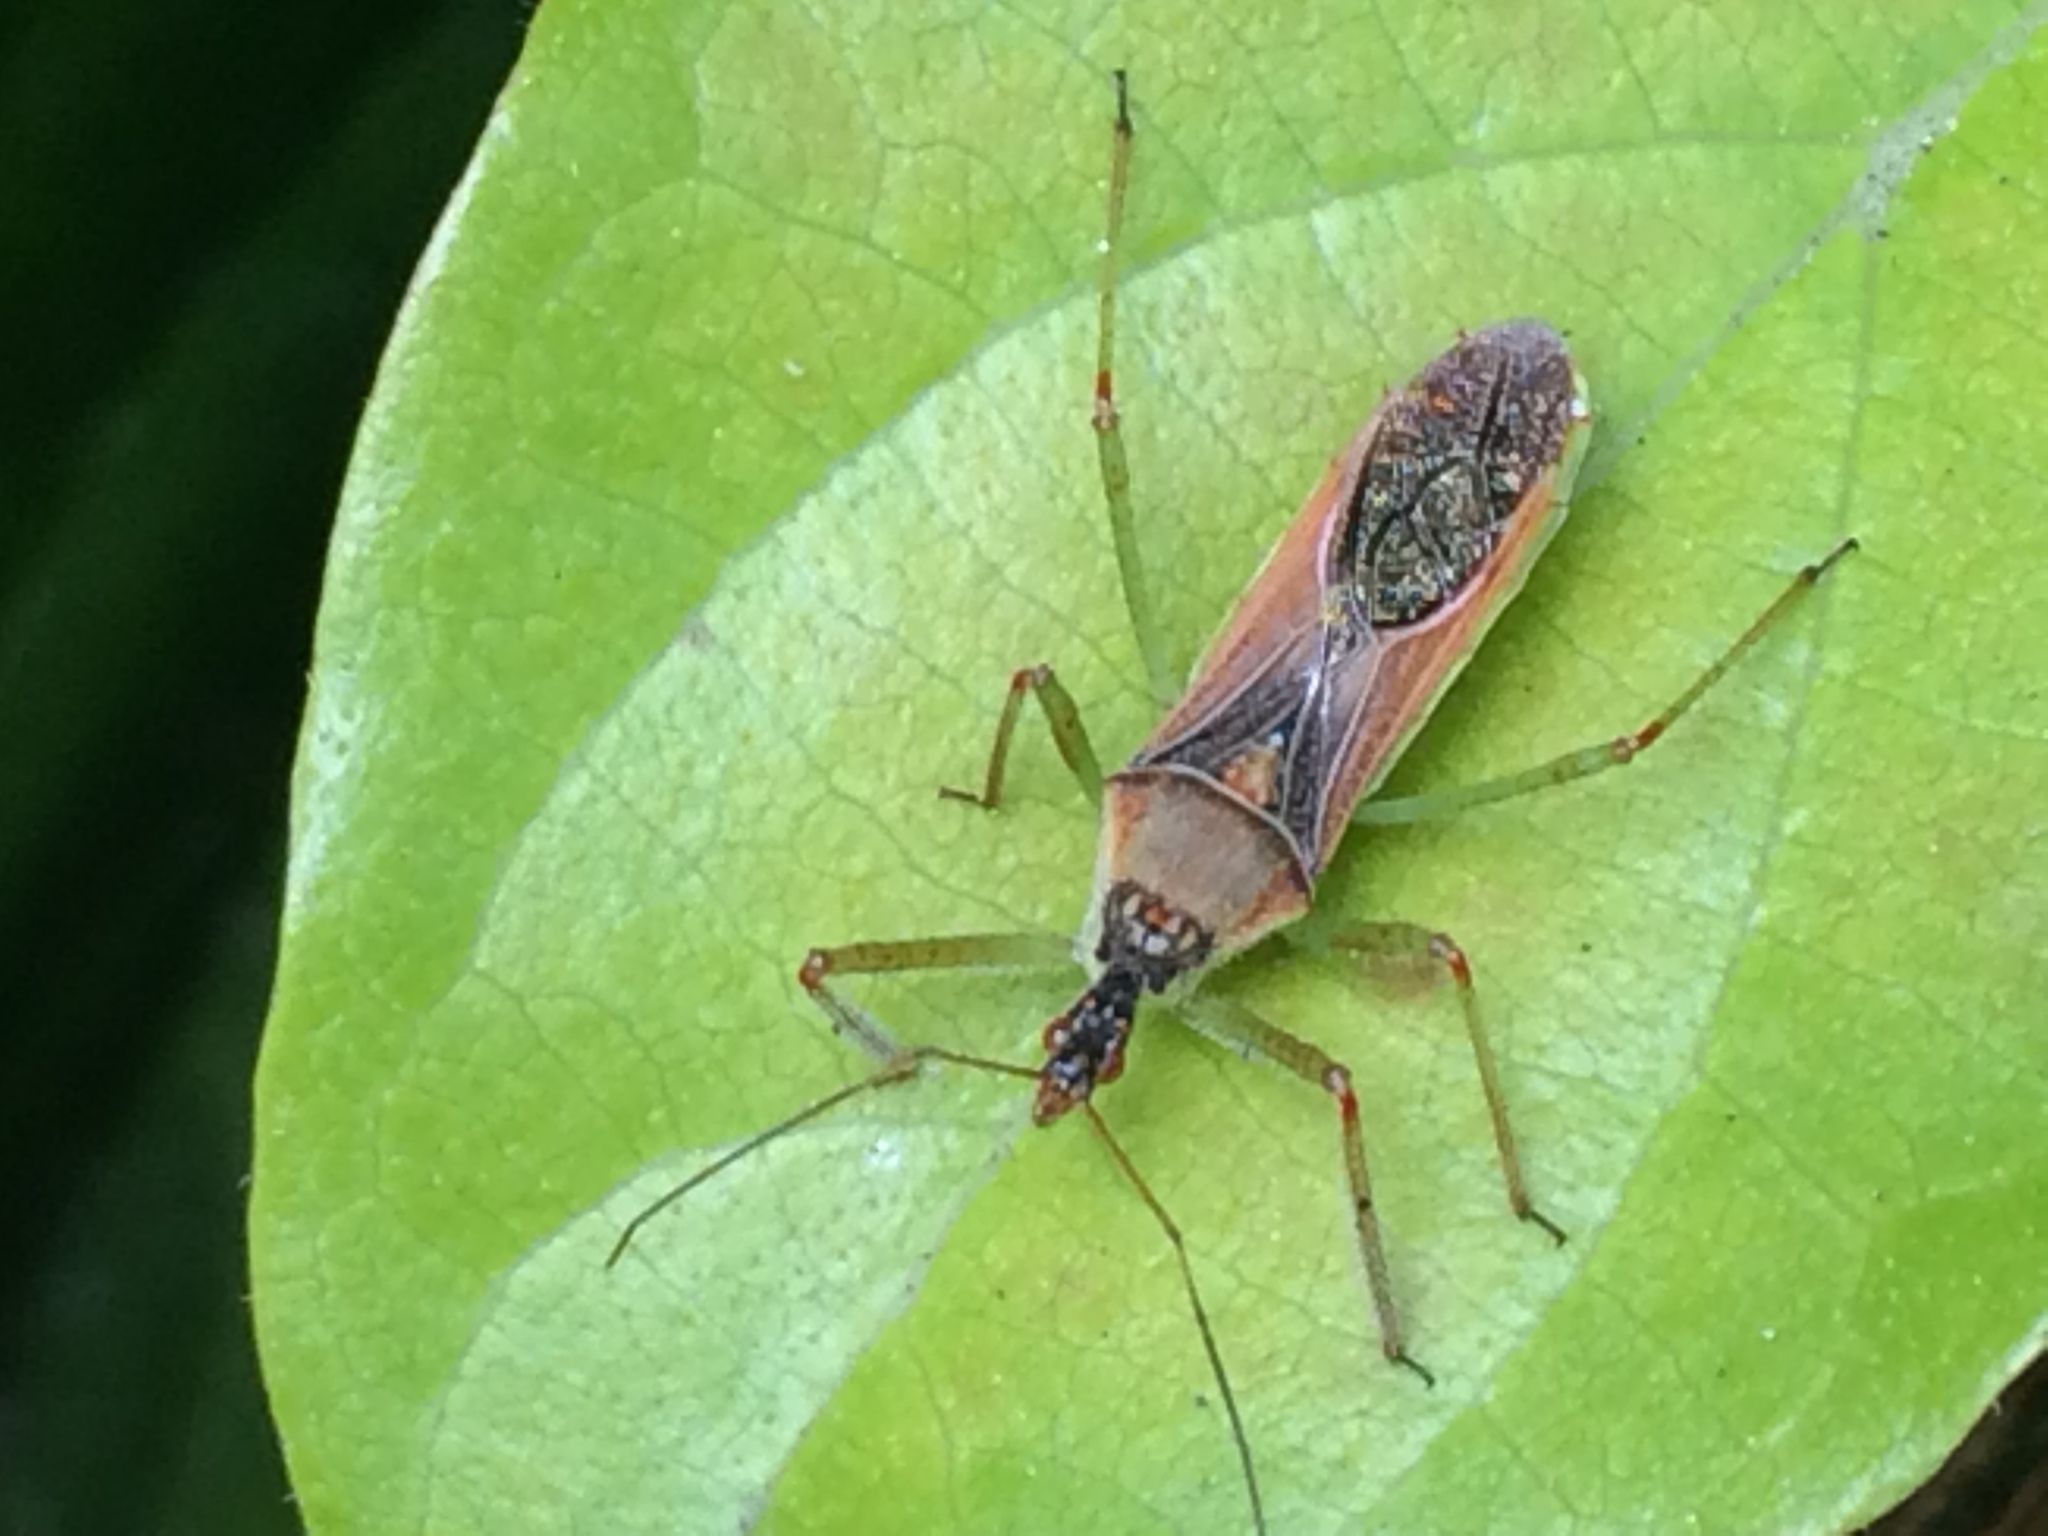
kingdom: Animalia
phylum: Arthropoda
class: Insecta
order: Hemiptera
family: Reduviidae
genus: Zelus
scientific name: Zelus renardii
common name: Assassin bug
